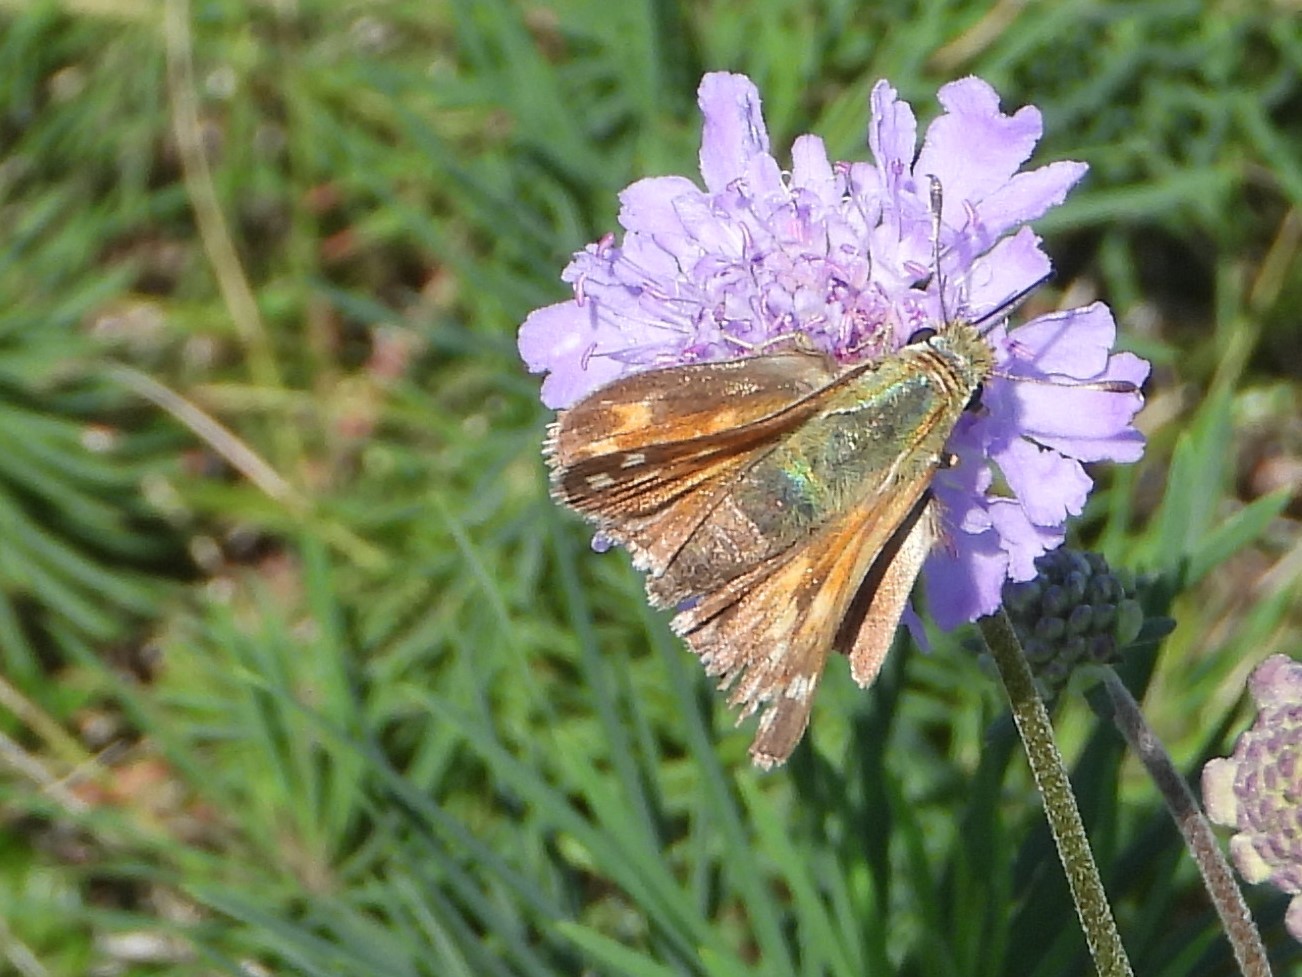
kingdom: Animalia
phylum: Arthropoda
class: Insecta
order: Lepidoptera
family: Hesperiidae
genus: Hesperia
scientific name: Hesperia comma
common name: Common branded skipper
